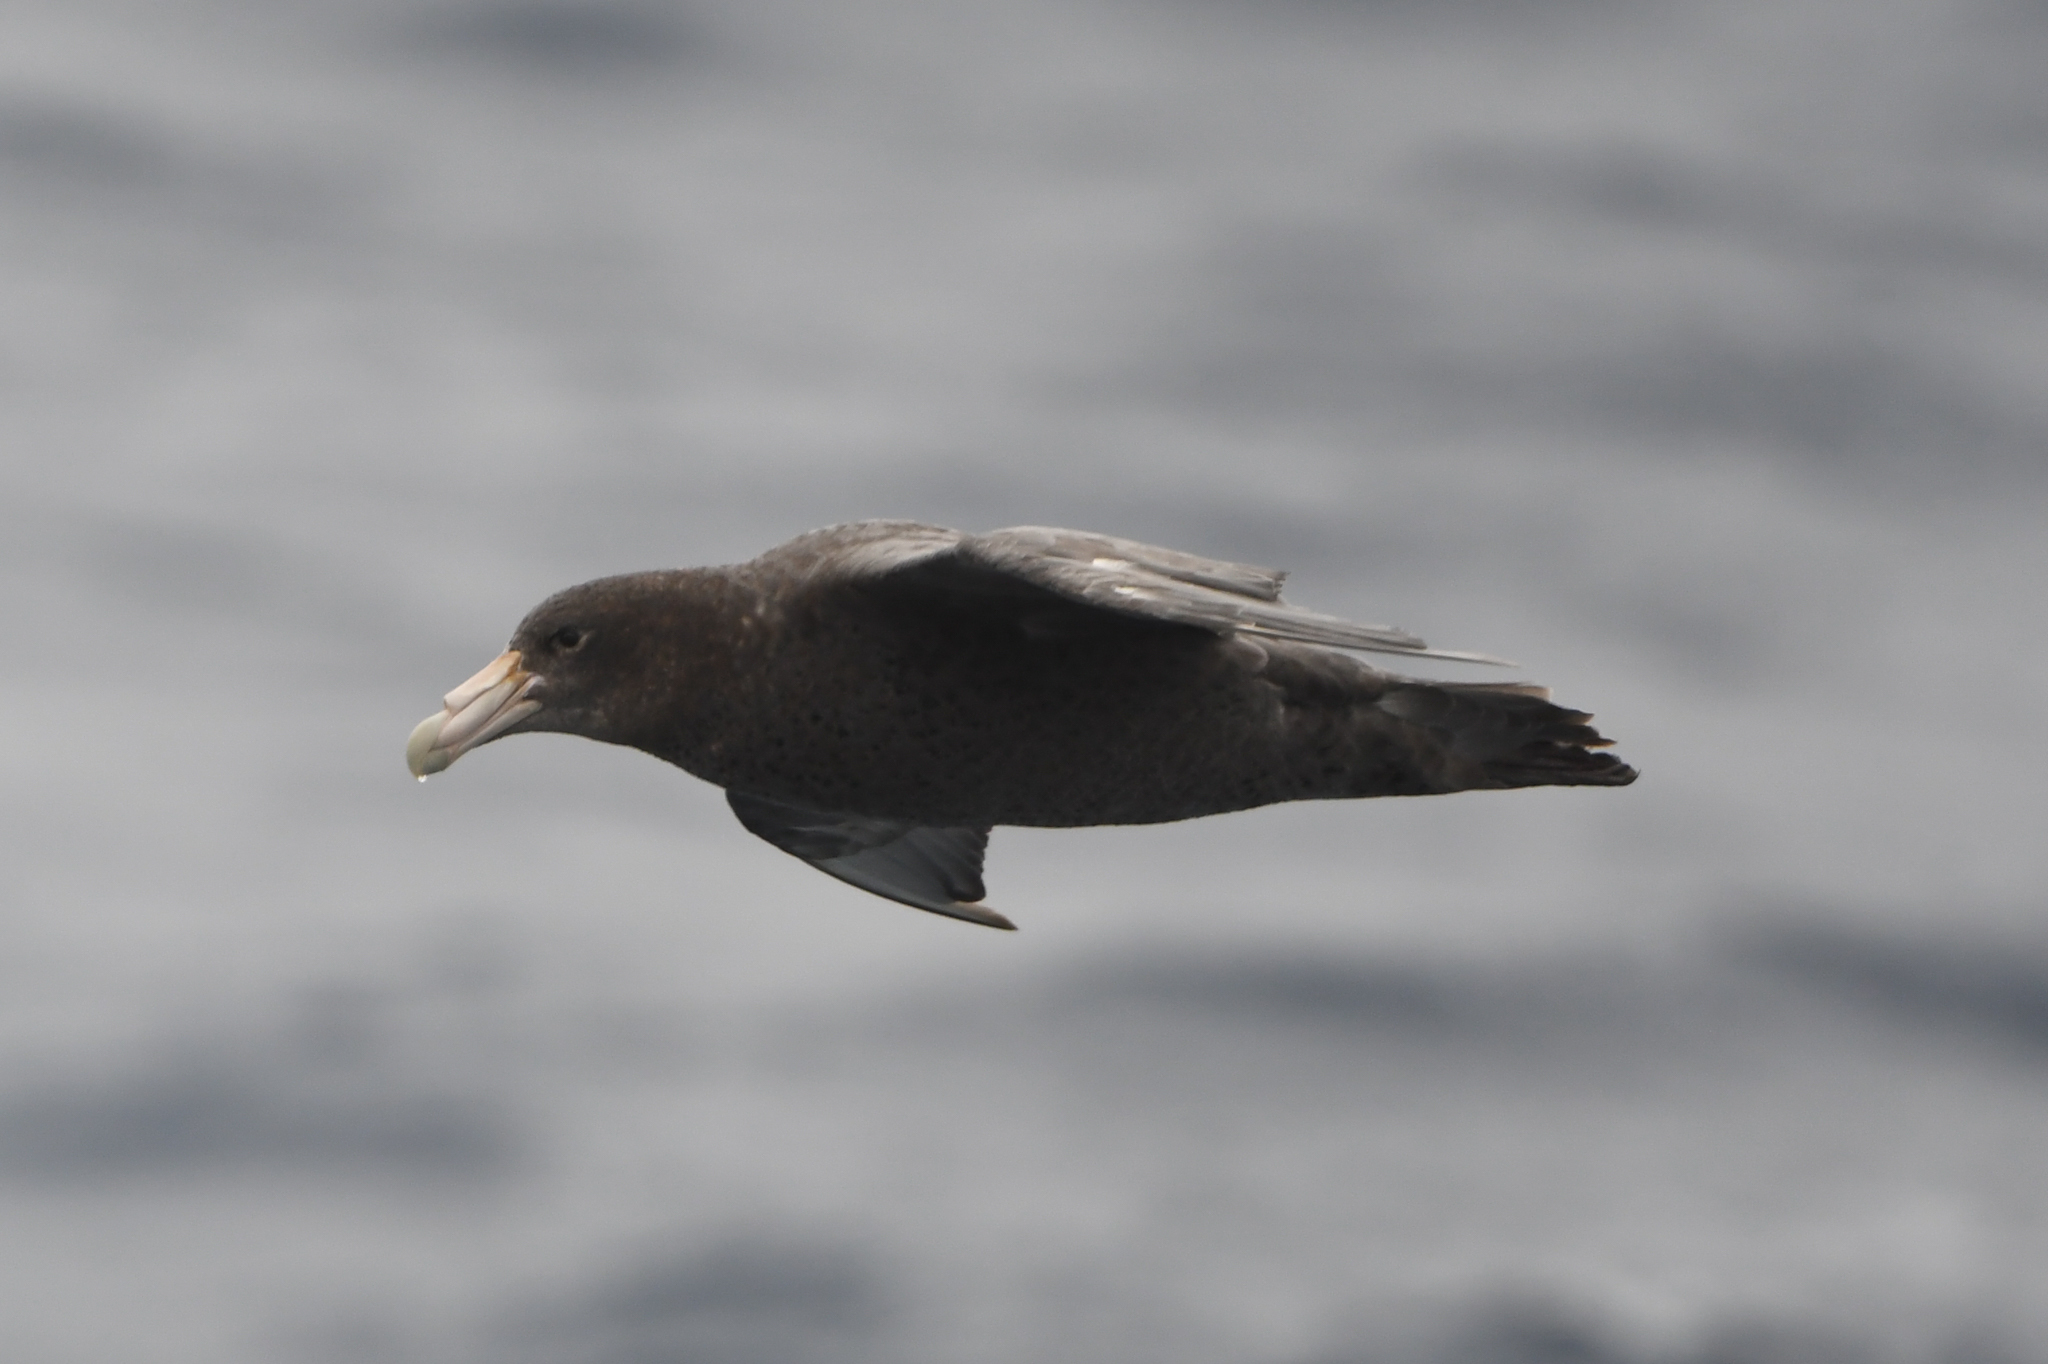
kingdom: Animalia
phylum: Chordata
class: Aves
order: Procellariiformes
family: Procellariidae
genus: Macronectes
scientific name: Macronectes giganteus
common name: Southern giant petrel
